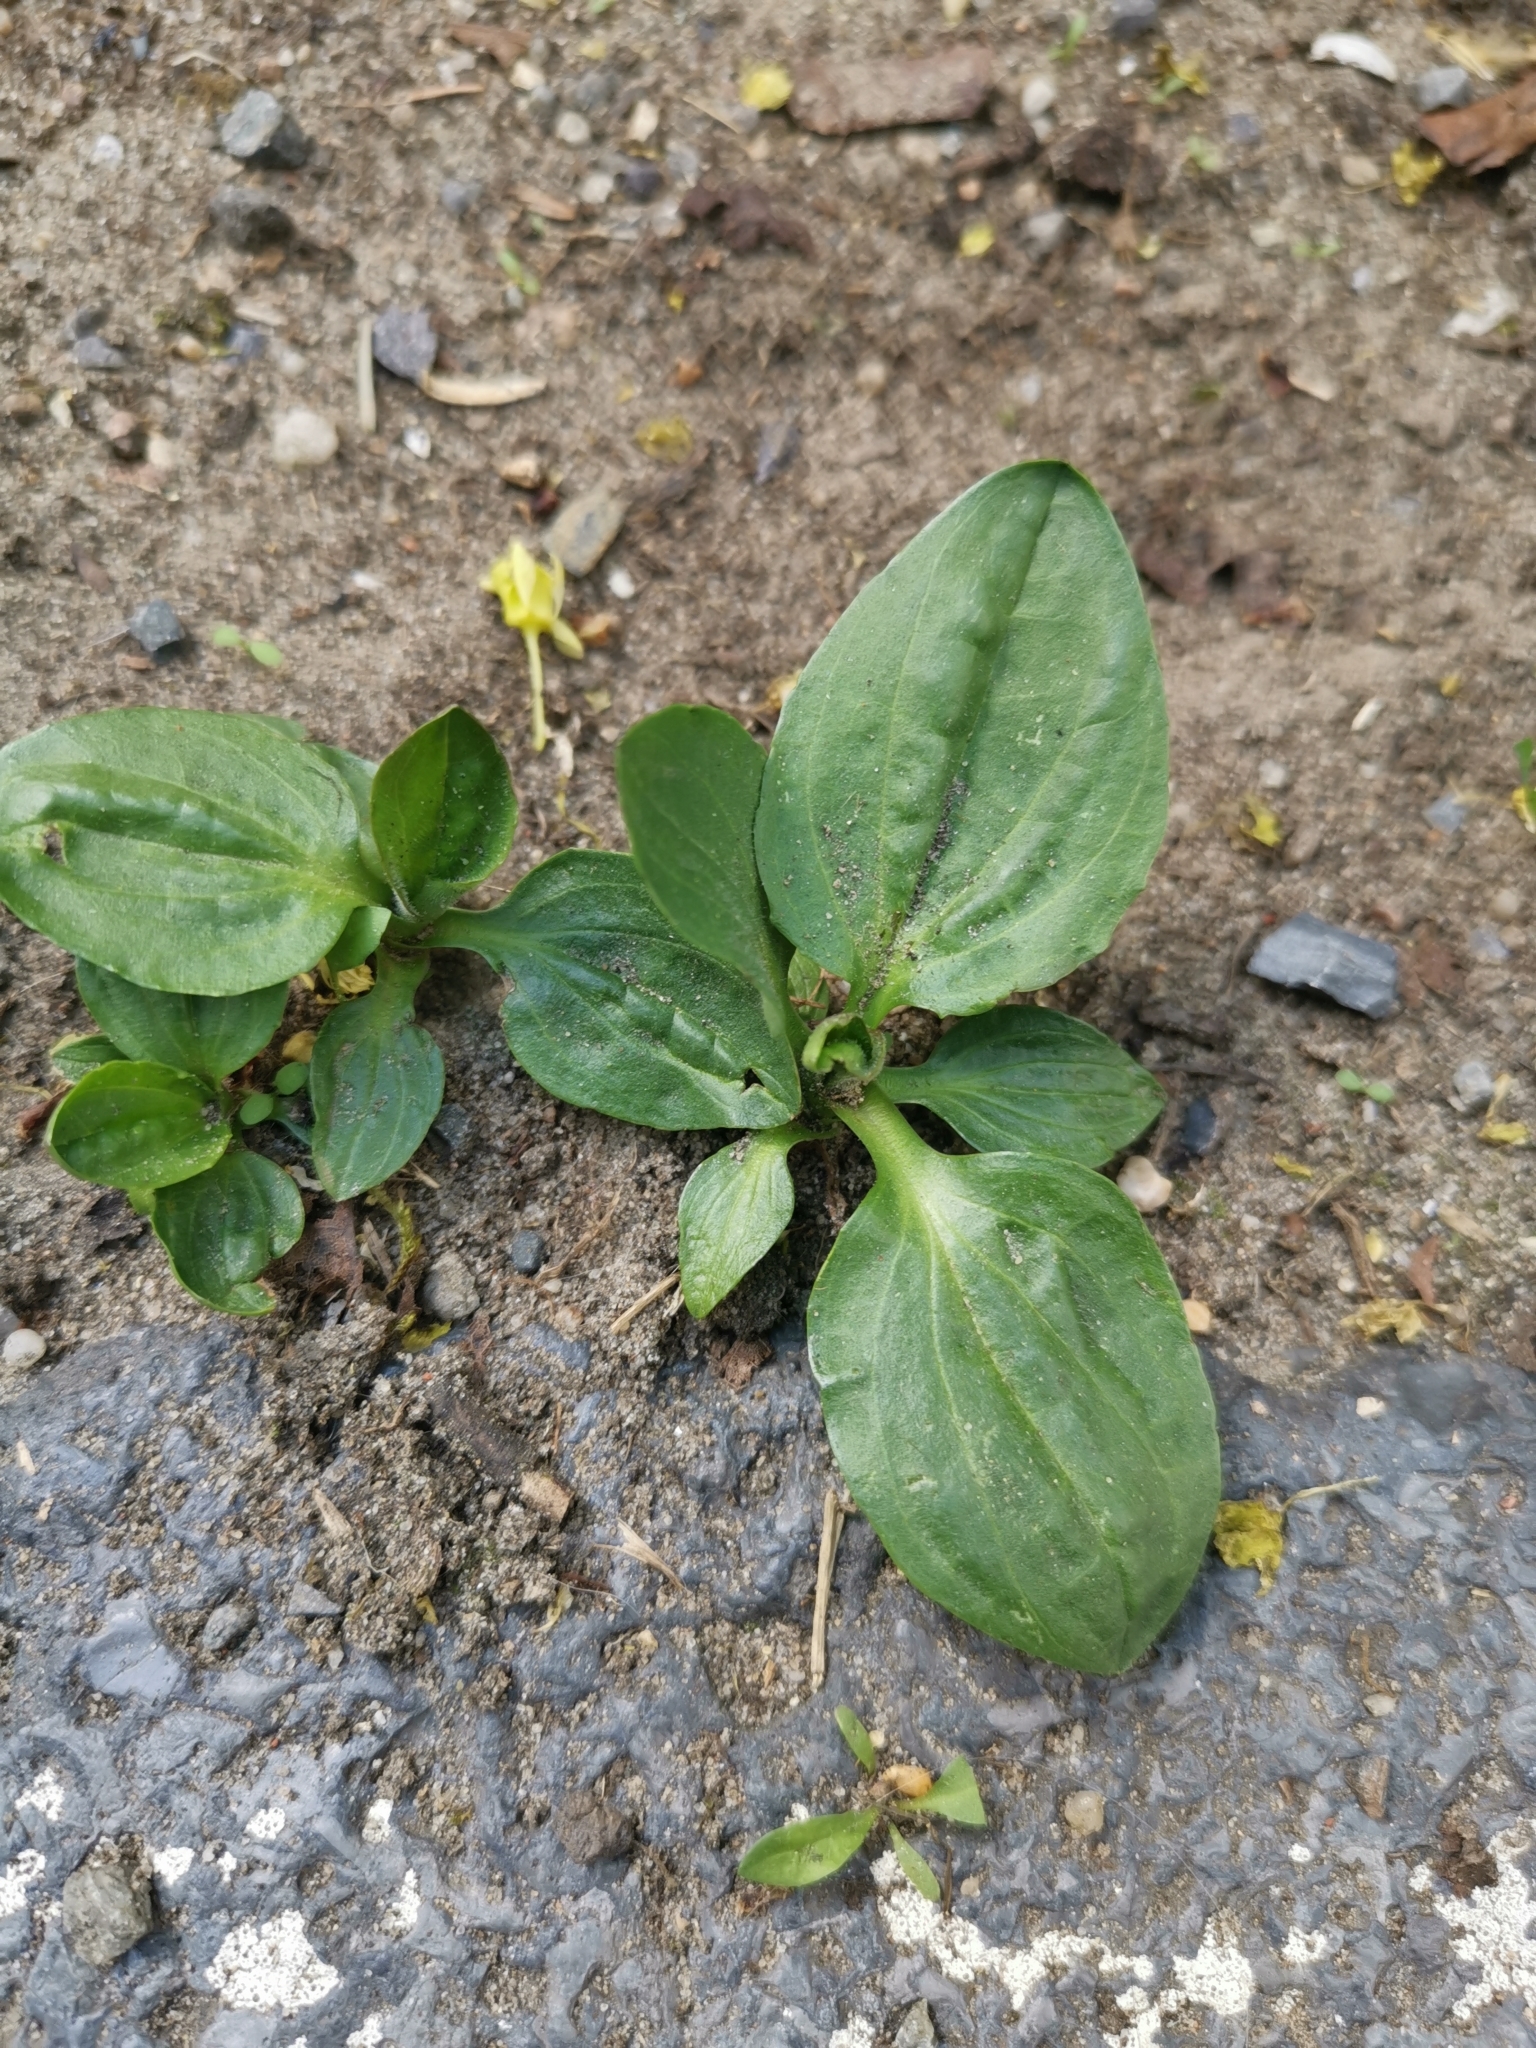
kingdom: Plantae
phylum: Tracheophyta
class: Magnoliopsida
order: Lamiales
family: Plantaginaceae
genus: Plantago
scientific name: Plantago major
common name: Common plantain
